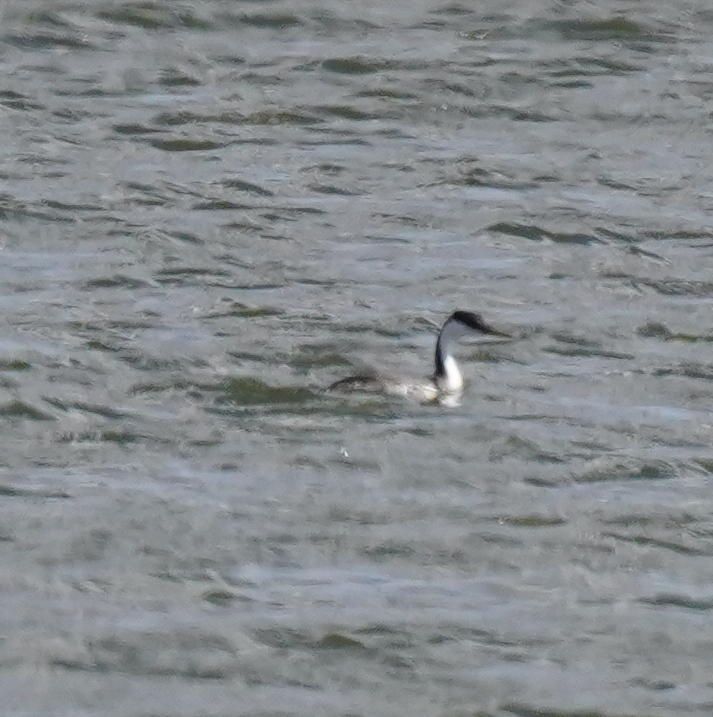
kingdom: Animalia
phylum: Chordata
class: Aves
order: Podicipediformes
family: Podicipedidae
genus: Aechmophorus
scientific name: Aechmophorus occidentalis
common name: Western grebe
